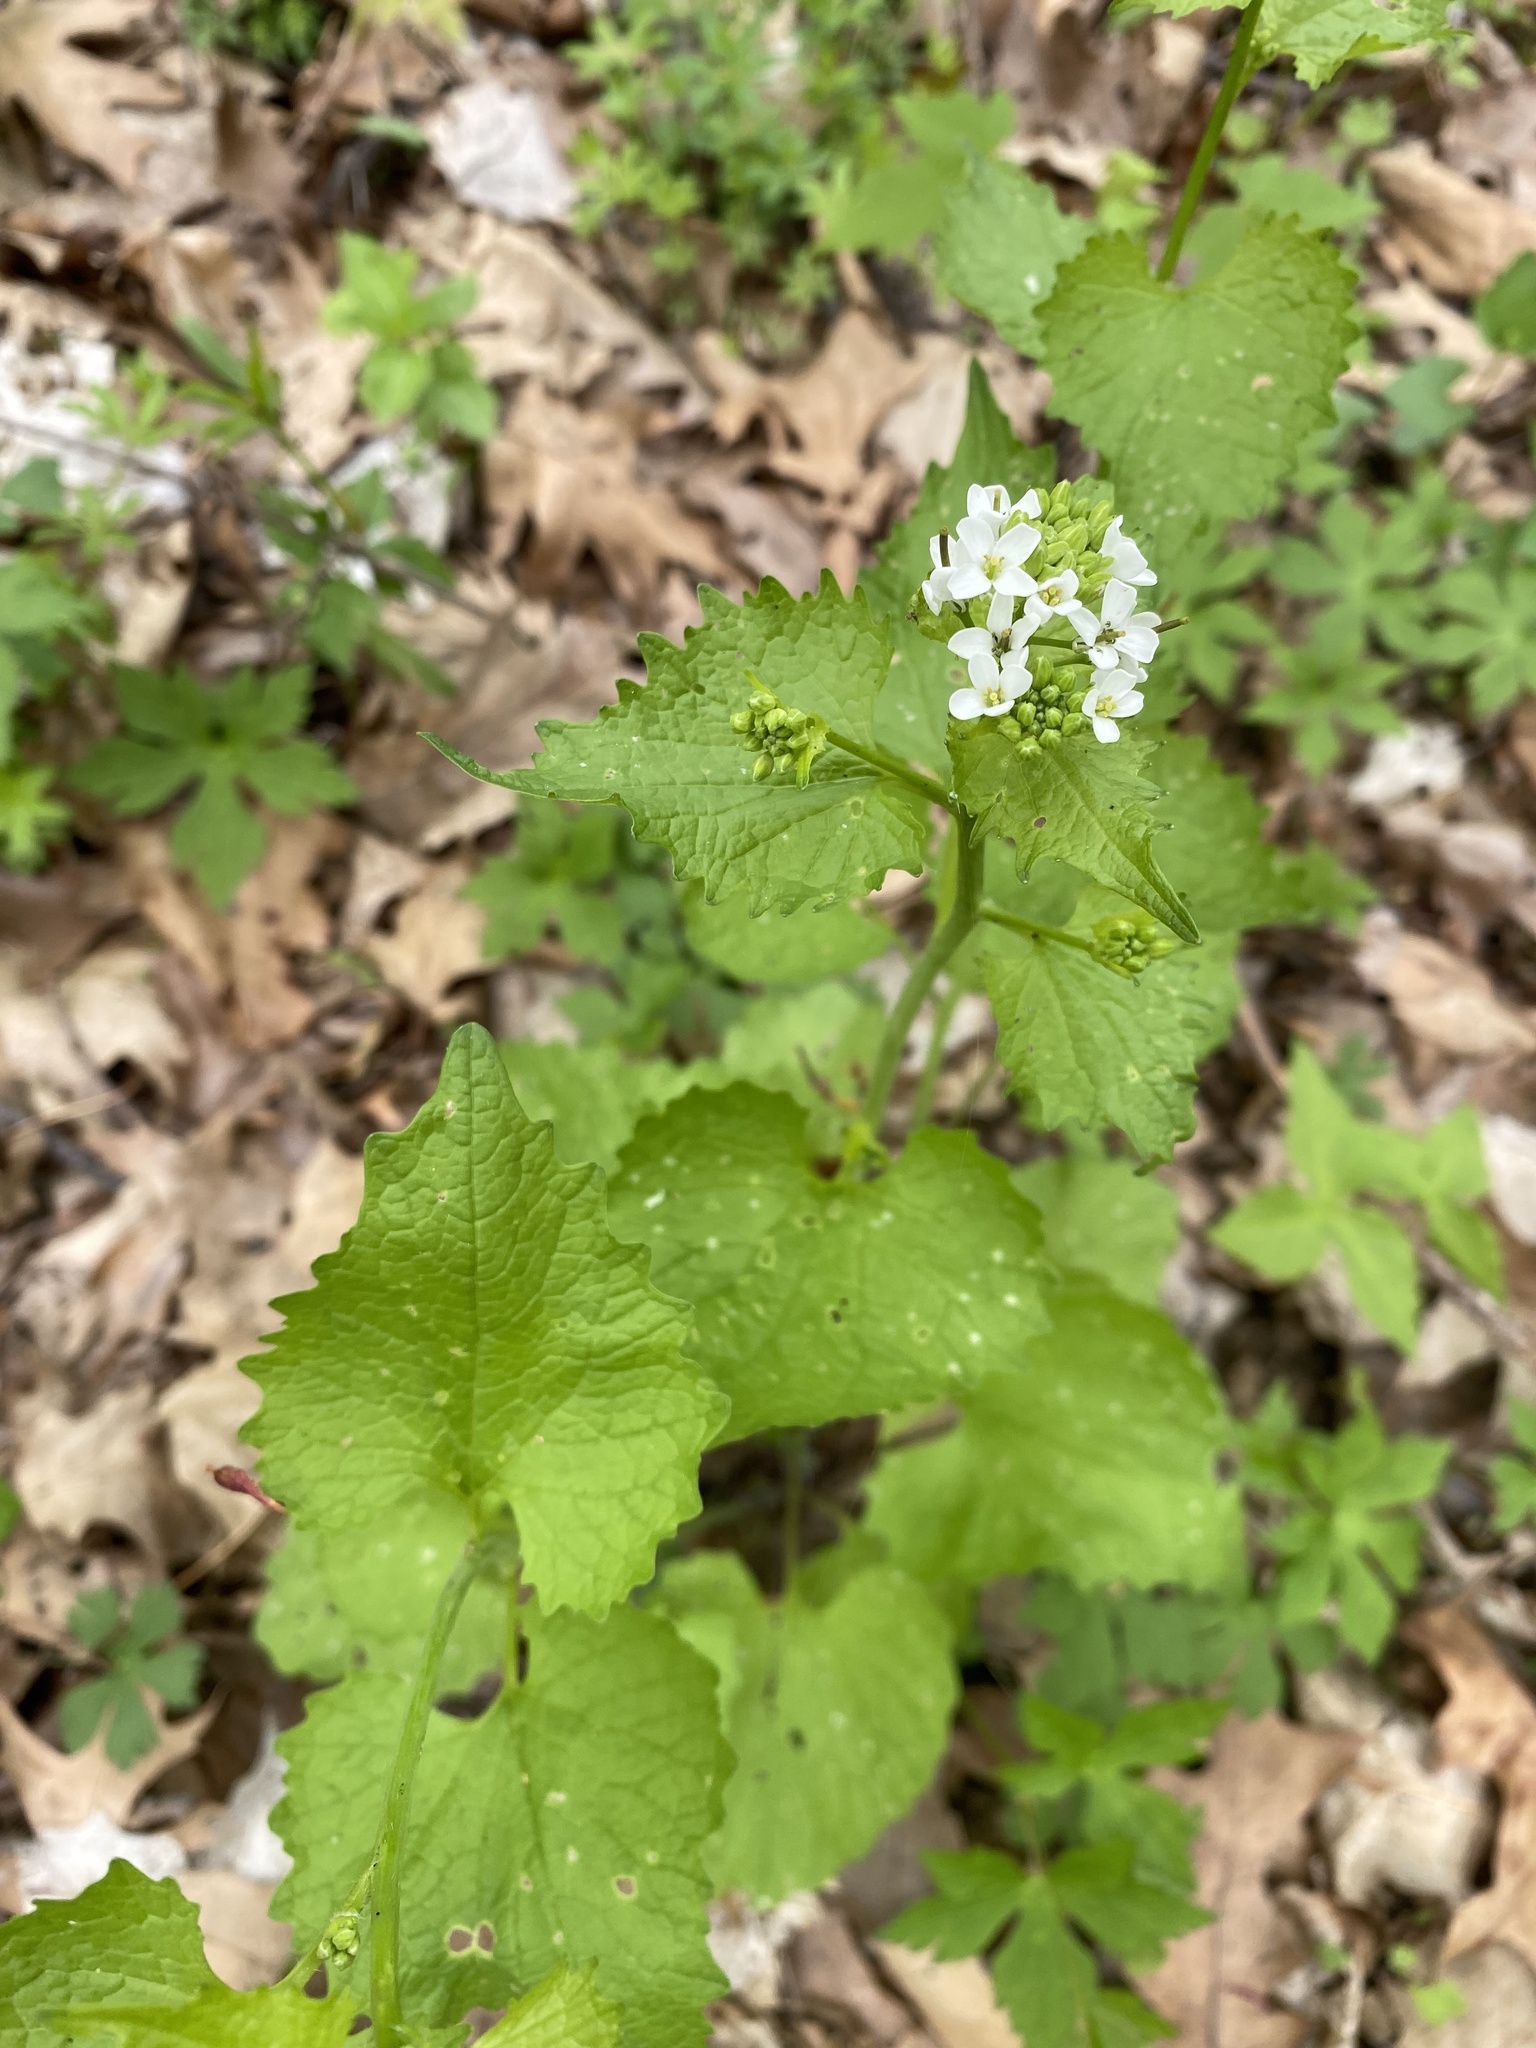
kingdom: Plantae
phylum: Tracheophyta
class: Magnoliopsida
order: Brassicales
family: Brassicaceae
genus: Alliaria
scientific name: Alliaria petiolata
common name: Garlic mustard
